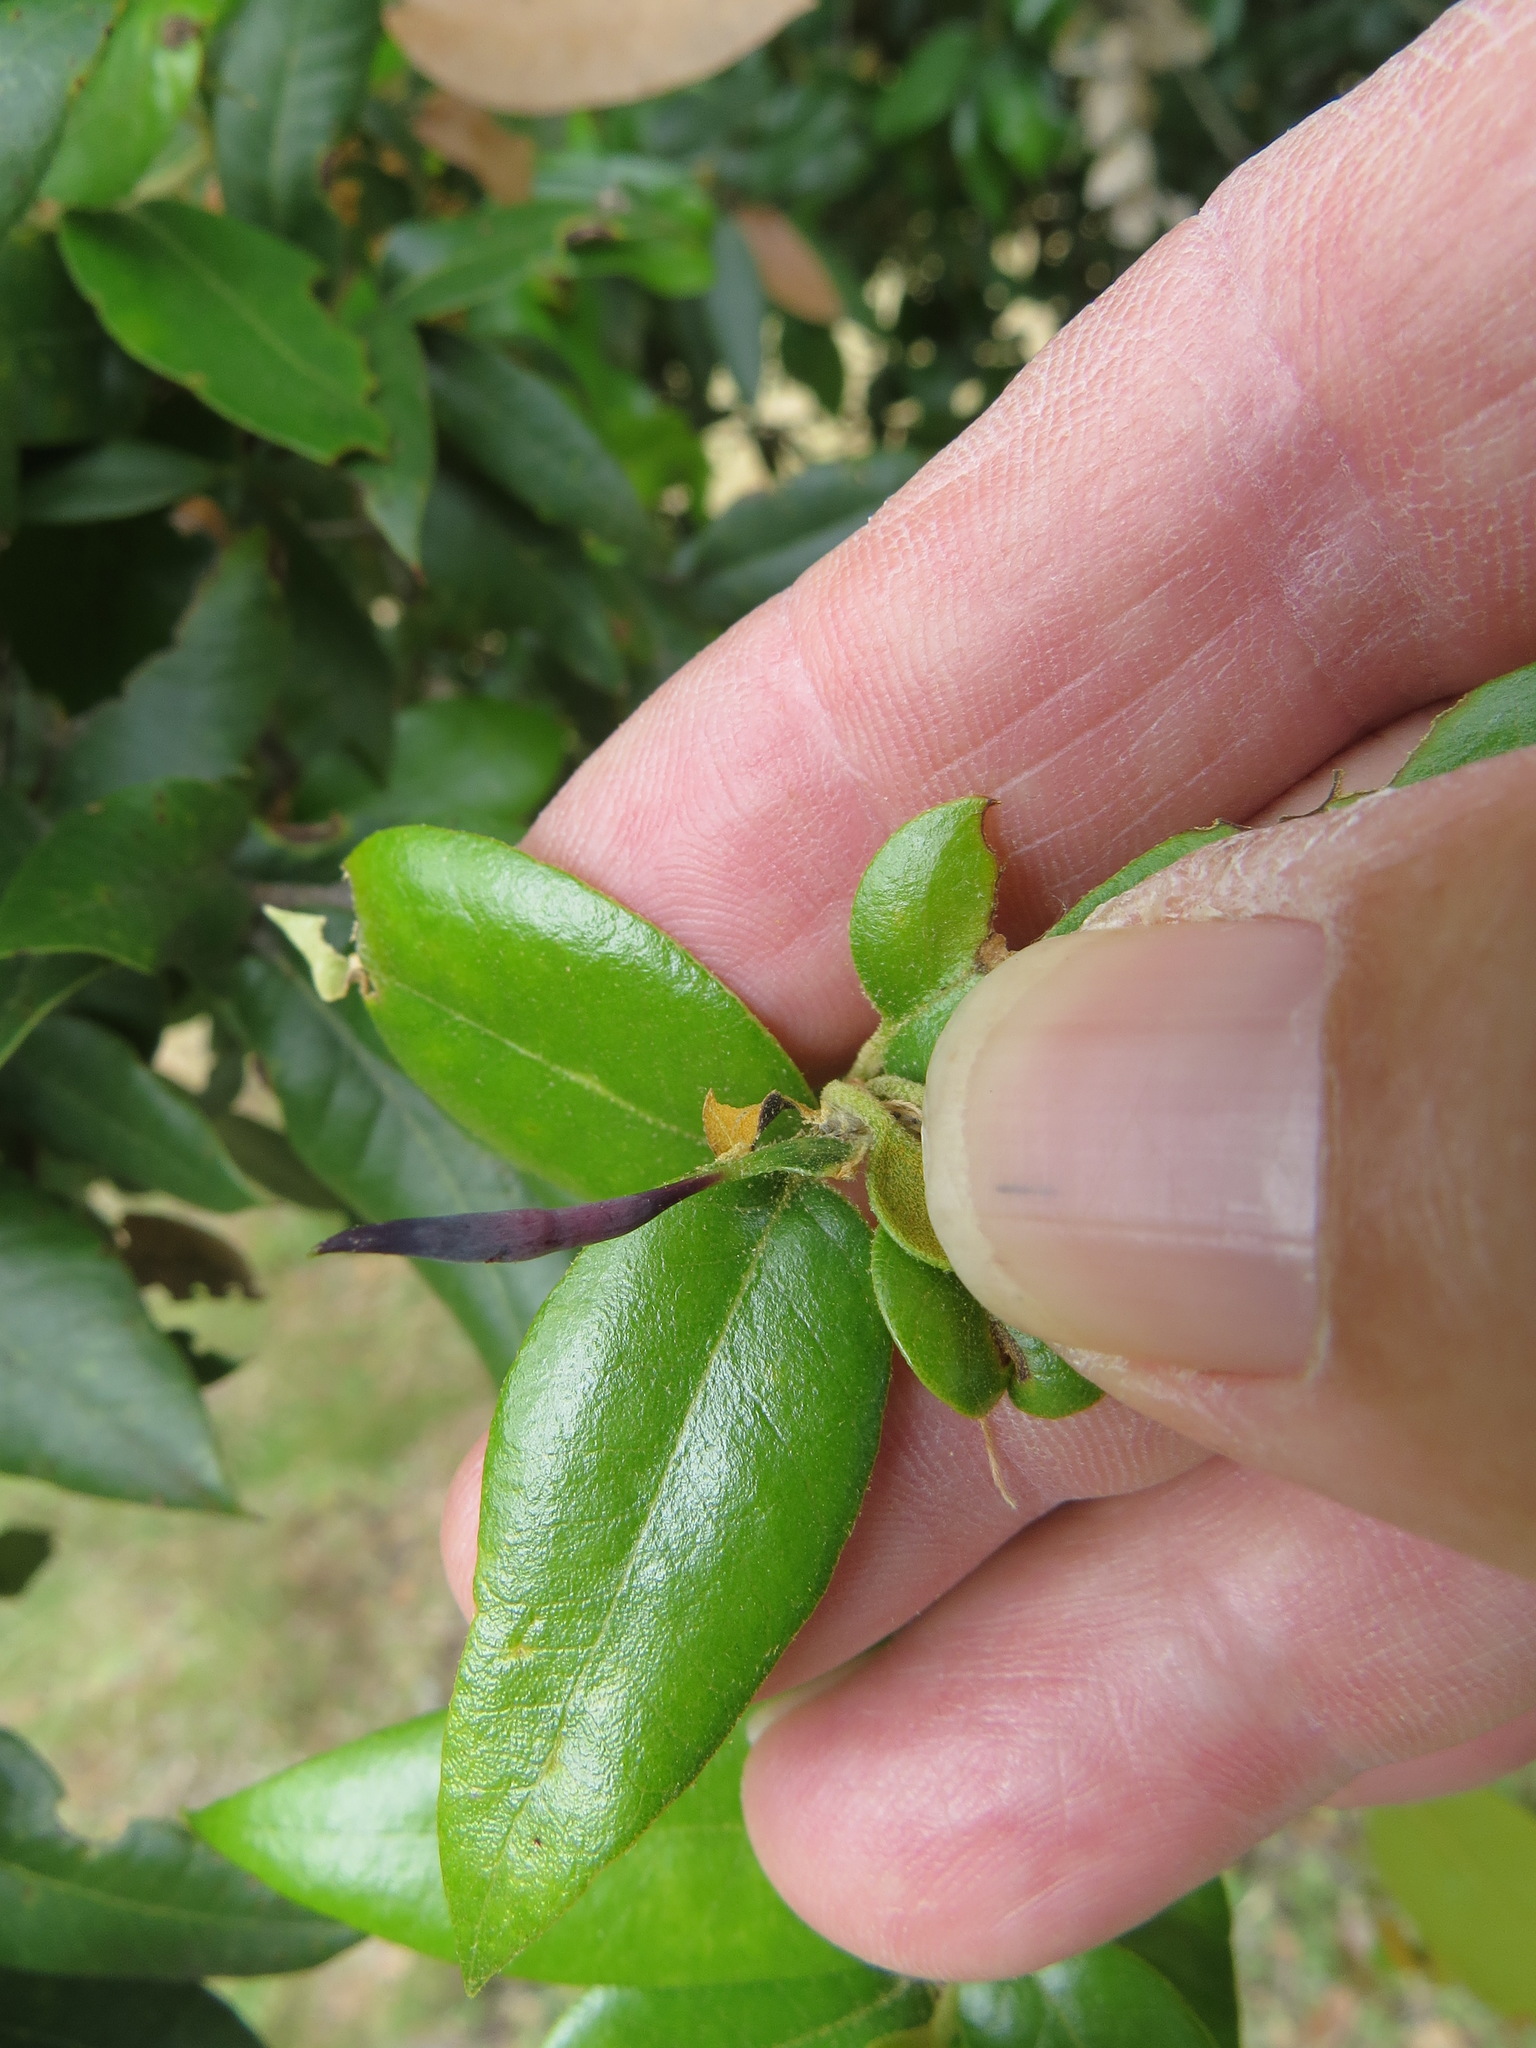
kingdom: Animalia
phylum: Arthropoda
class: Insecta
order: Hymenoptera
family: Cynipidae
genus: Heteroecus
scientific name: Heteroecus
